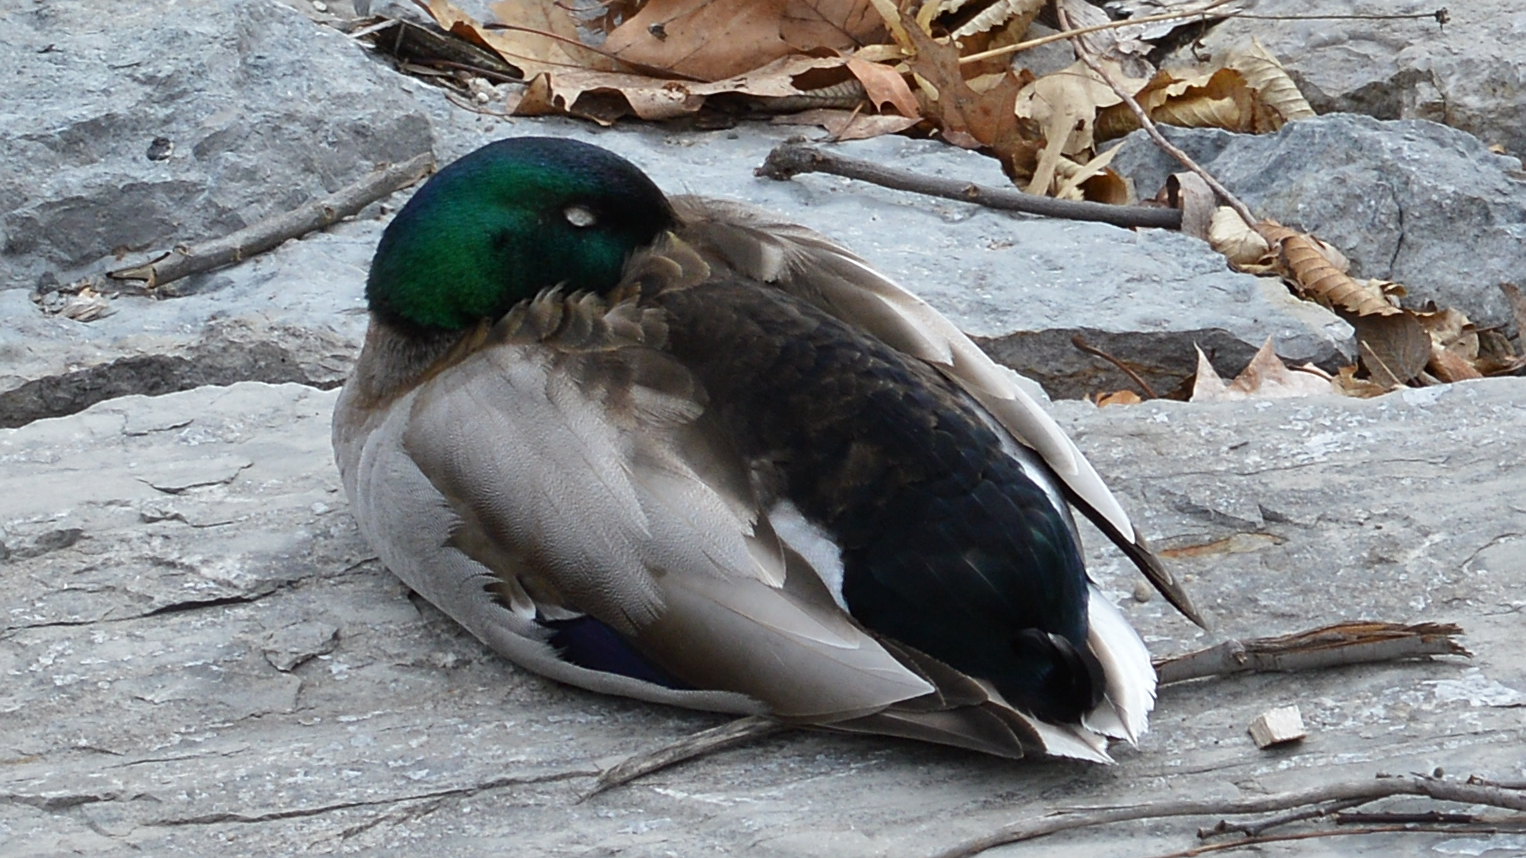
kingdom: Animalia
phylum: Chordata
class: Aves
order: Anseriformes
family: Anatidae
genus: Anas
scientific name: Anas platyrhynchos
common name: Mallard
